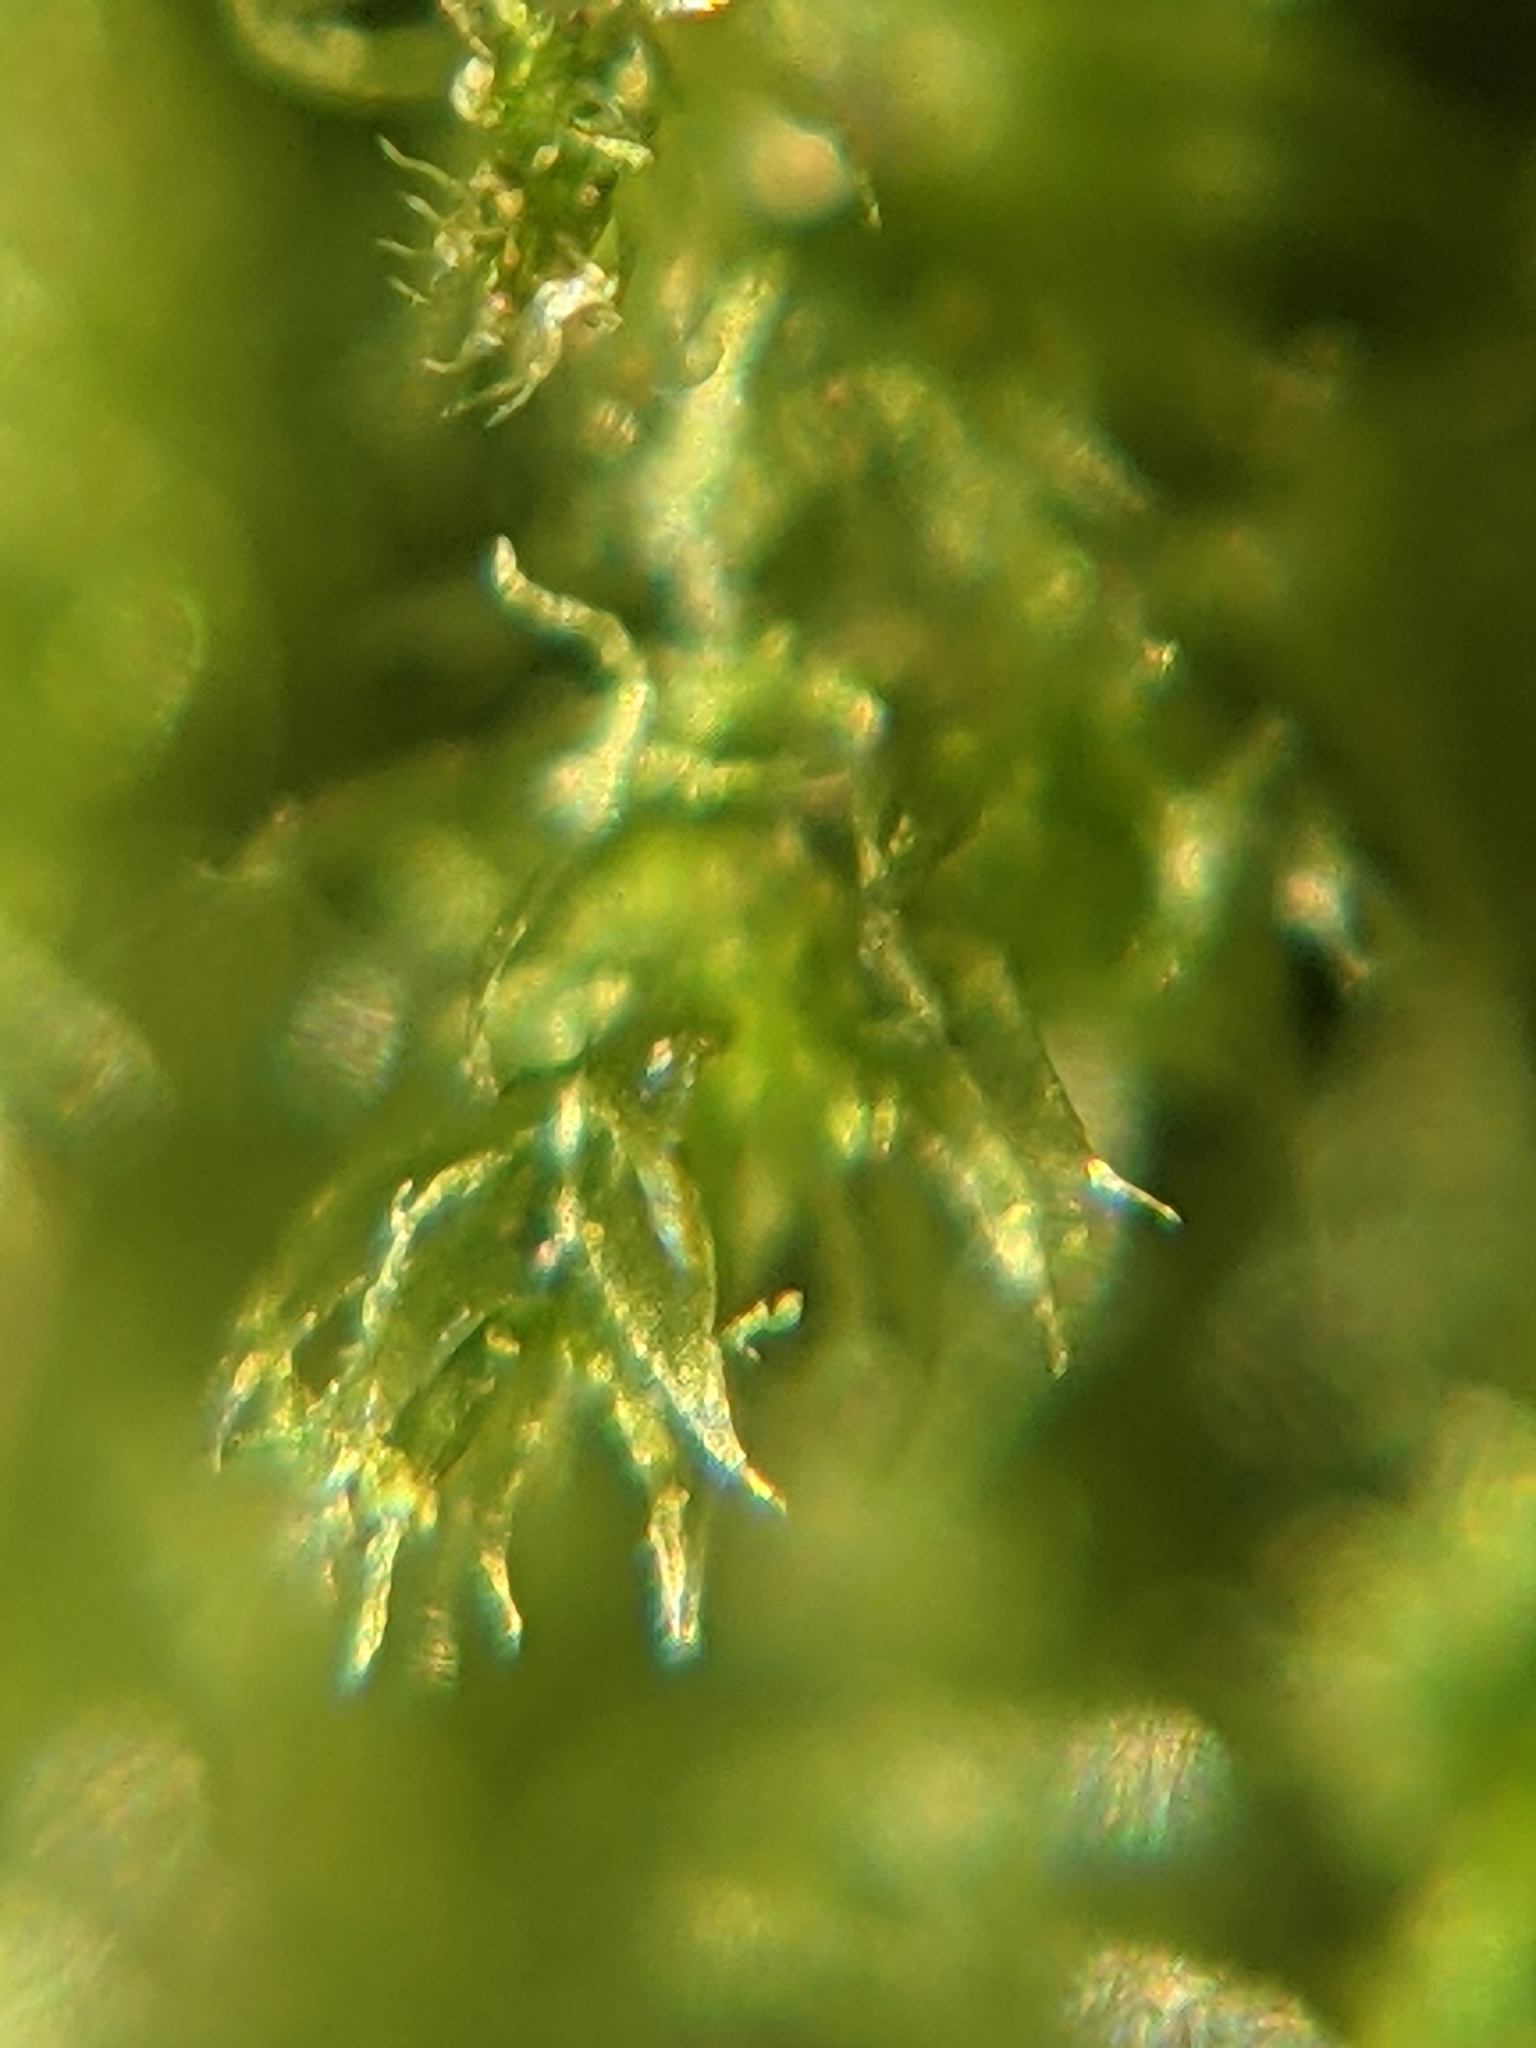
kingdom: Plantae
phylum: Bryophyta
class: Bryopsida
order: Hypnales
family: Plagiotheciaceae
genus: Pseudotaxiphyllum
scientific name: Pseudotaxiphyllum elegans
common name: Elegant silk moss
